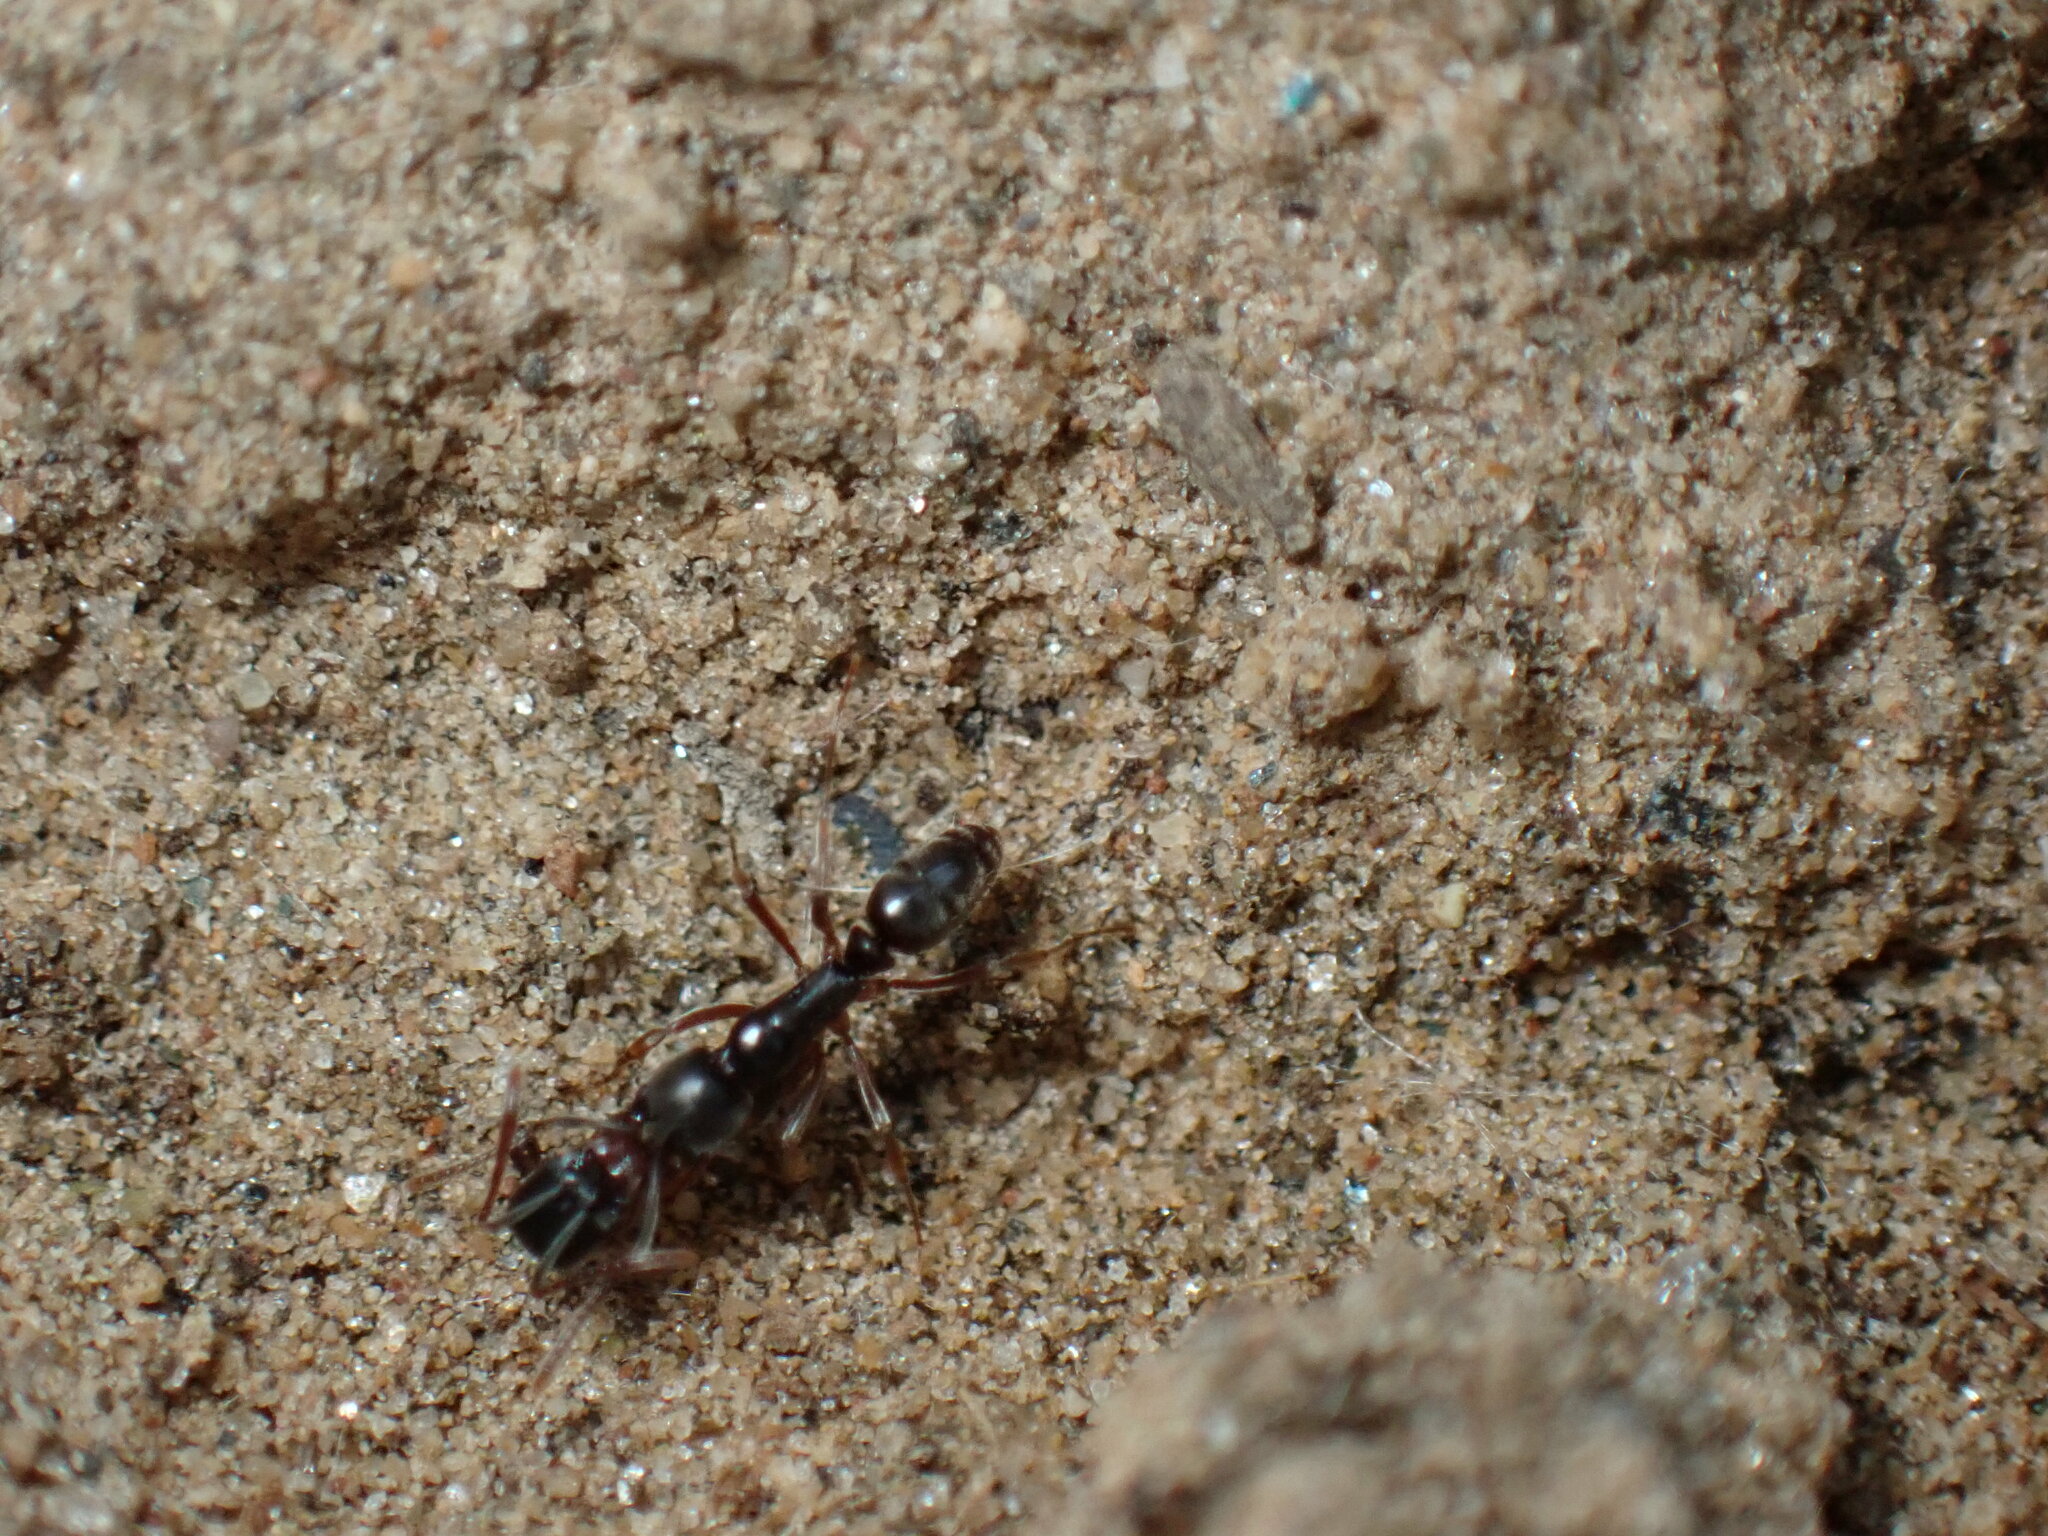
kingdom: Animalia
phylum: Arthropoda
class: Insecta
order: Hymenoptera
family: Formicidae
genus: Pachycondyla
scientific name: Pachycondyla chinensis
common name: Asian needle ant
